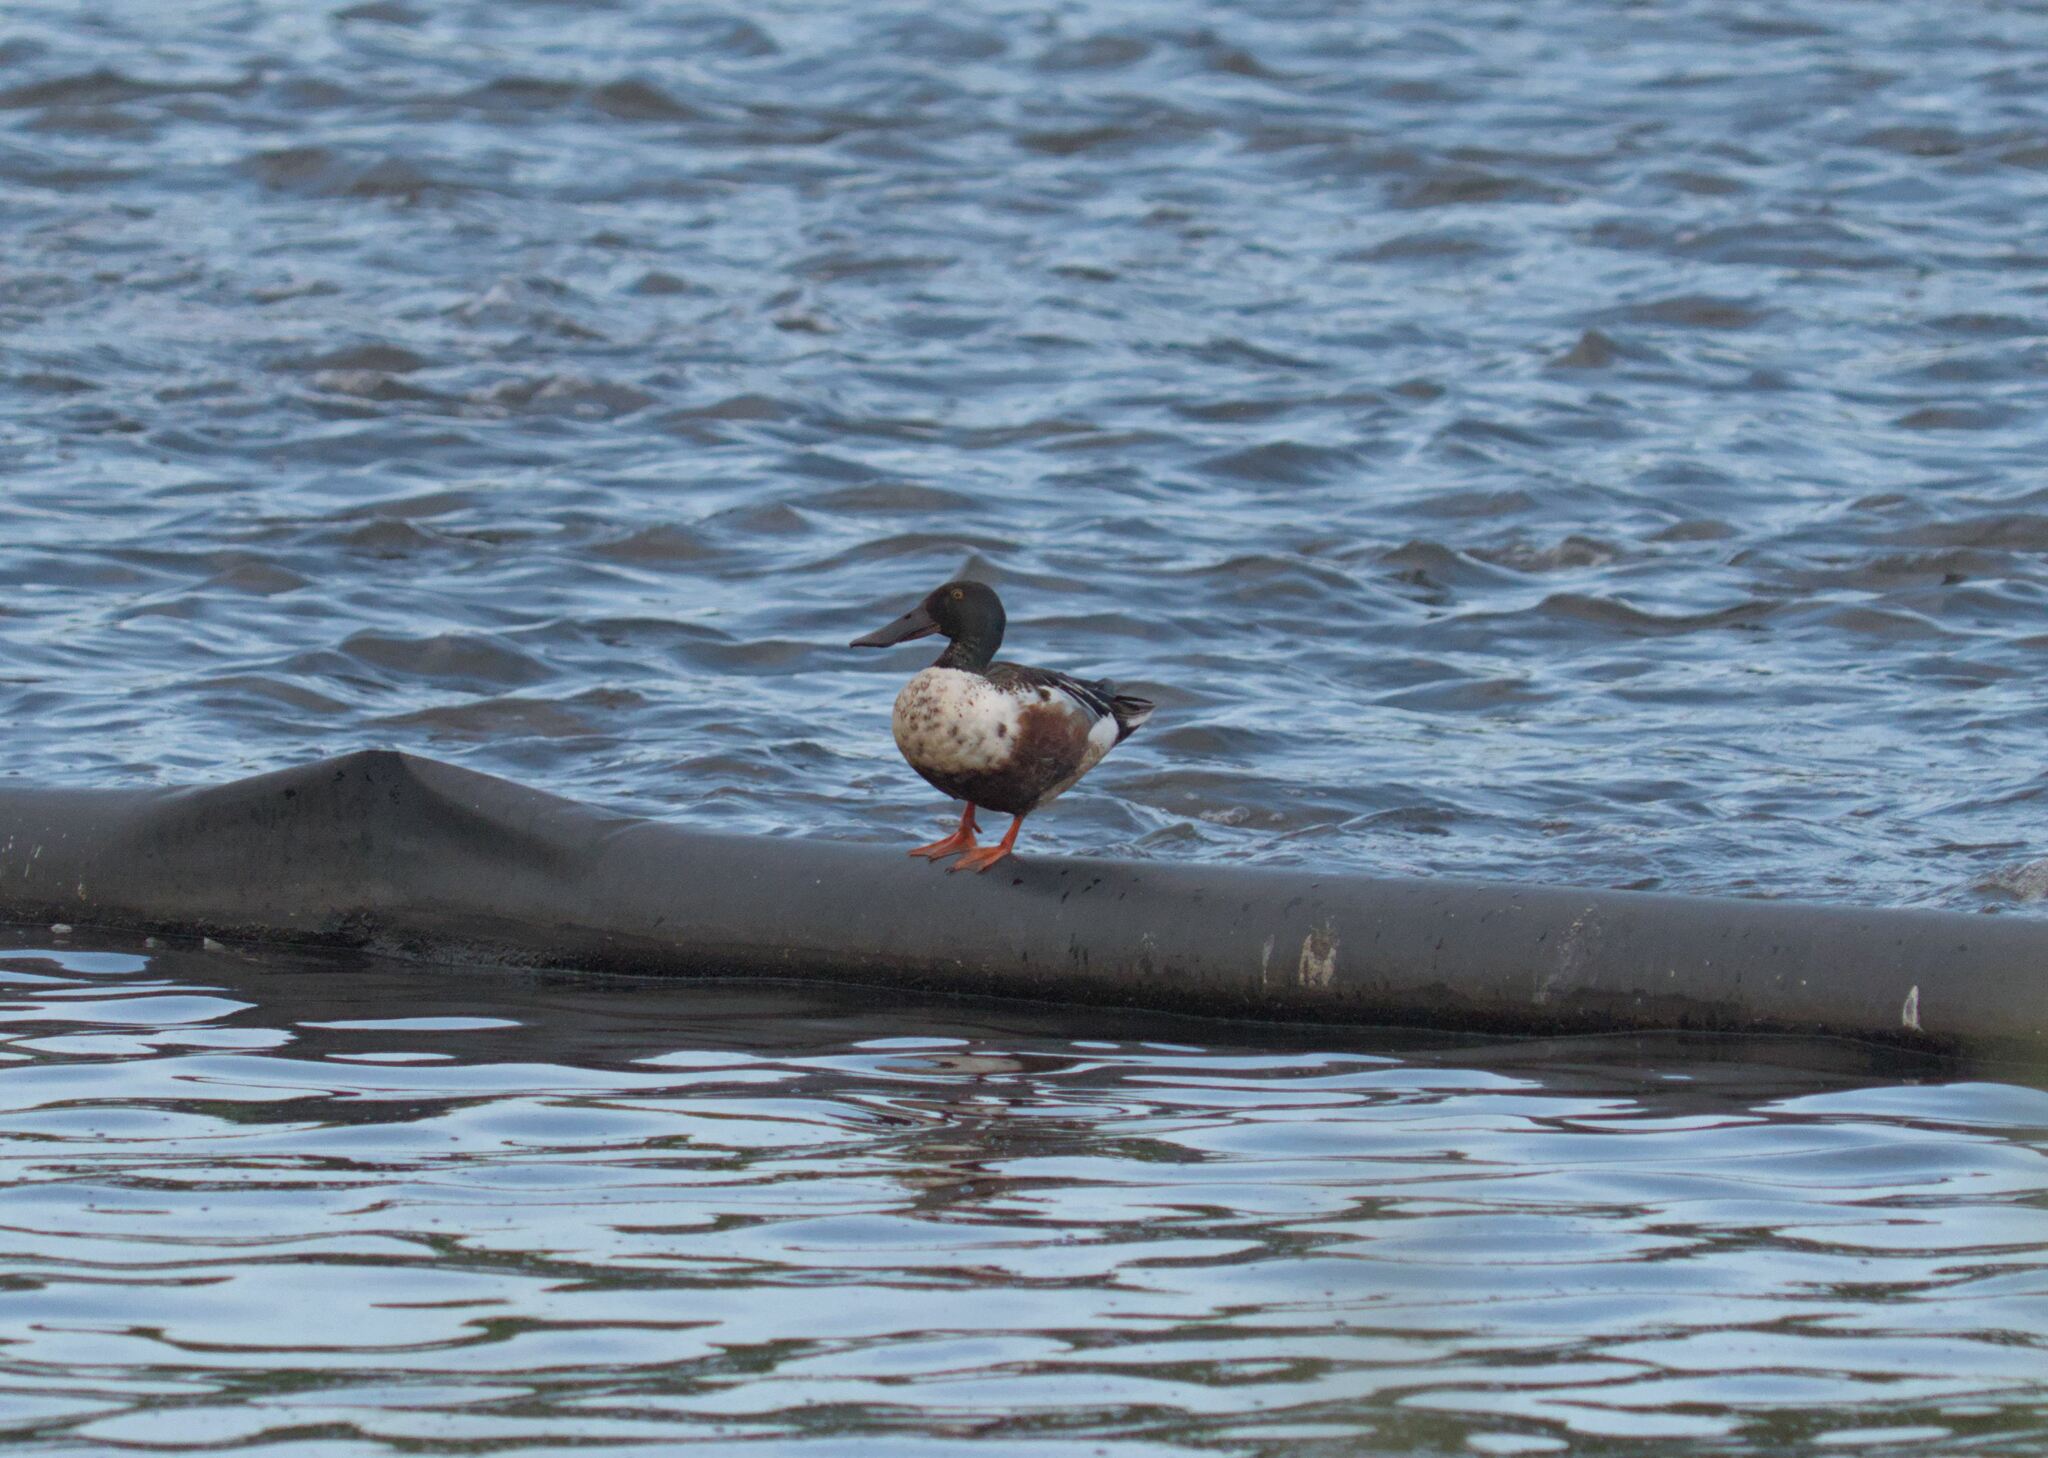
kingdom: Animalia
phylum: Chordata
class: Aves
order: Anseriformes
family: Anatidae
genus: Spatula
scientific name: Spatula clypeata
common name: Northern shoveler
